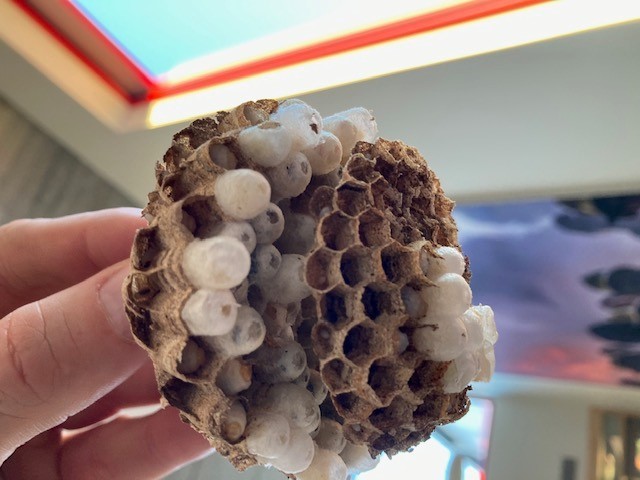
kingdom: Animalia
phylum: Arthropoda
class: Insecta
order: Hymenoptera
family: Vespidae
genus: Vespa
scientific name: Vespa velutina
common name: Asian hornet
